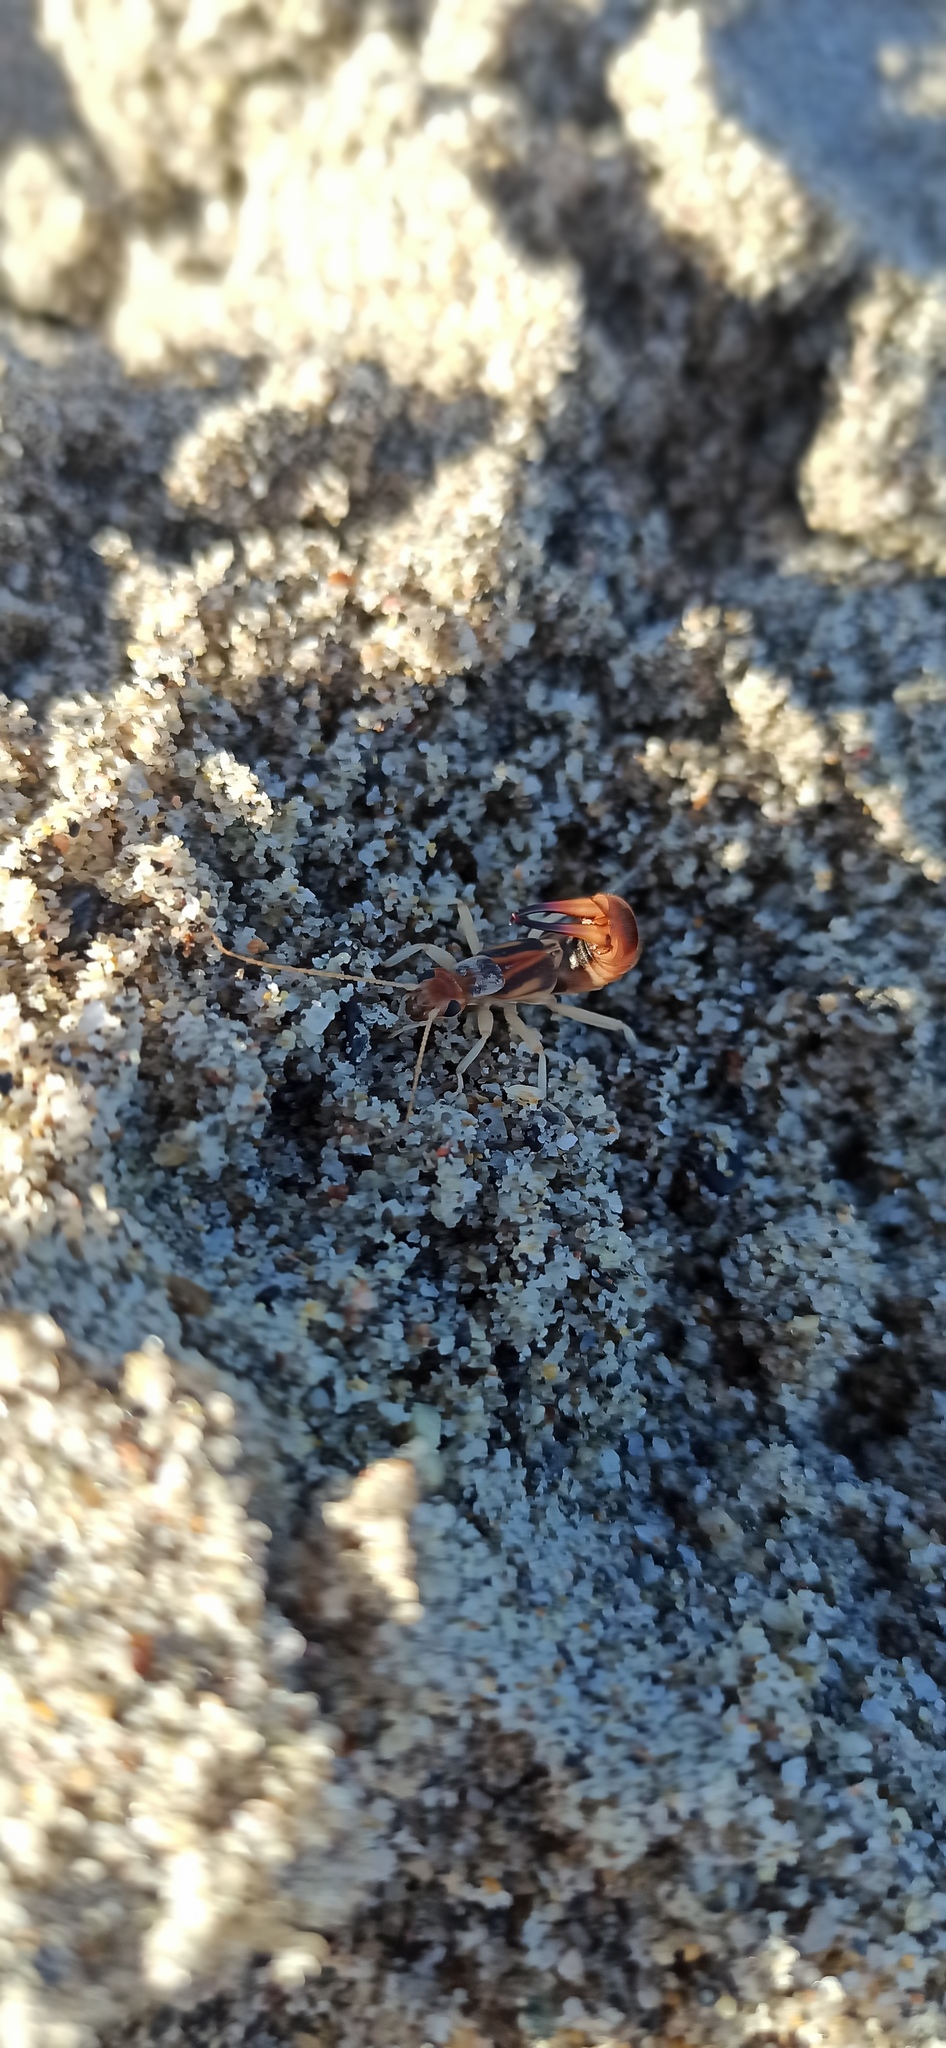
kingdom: Animalia
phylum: Arthropoda
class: Insecta
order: Dermaptera
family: Labiduridae
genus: Labidura
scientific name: Labidura riparia
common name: Striped earwig
